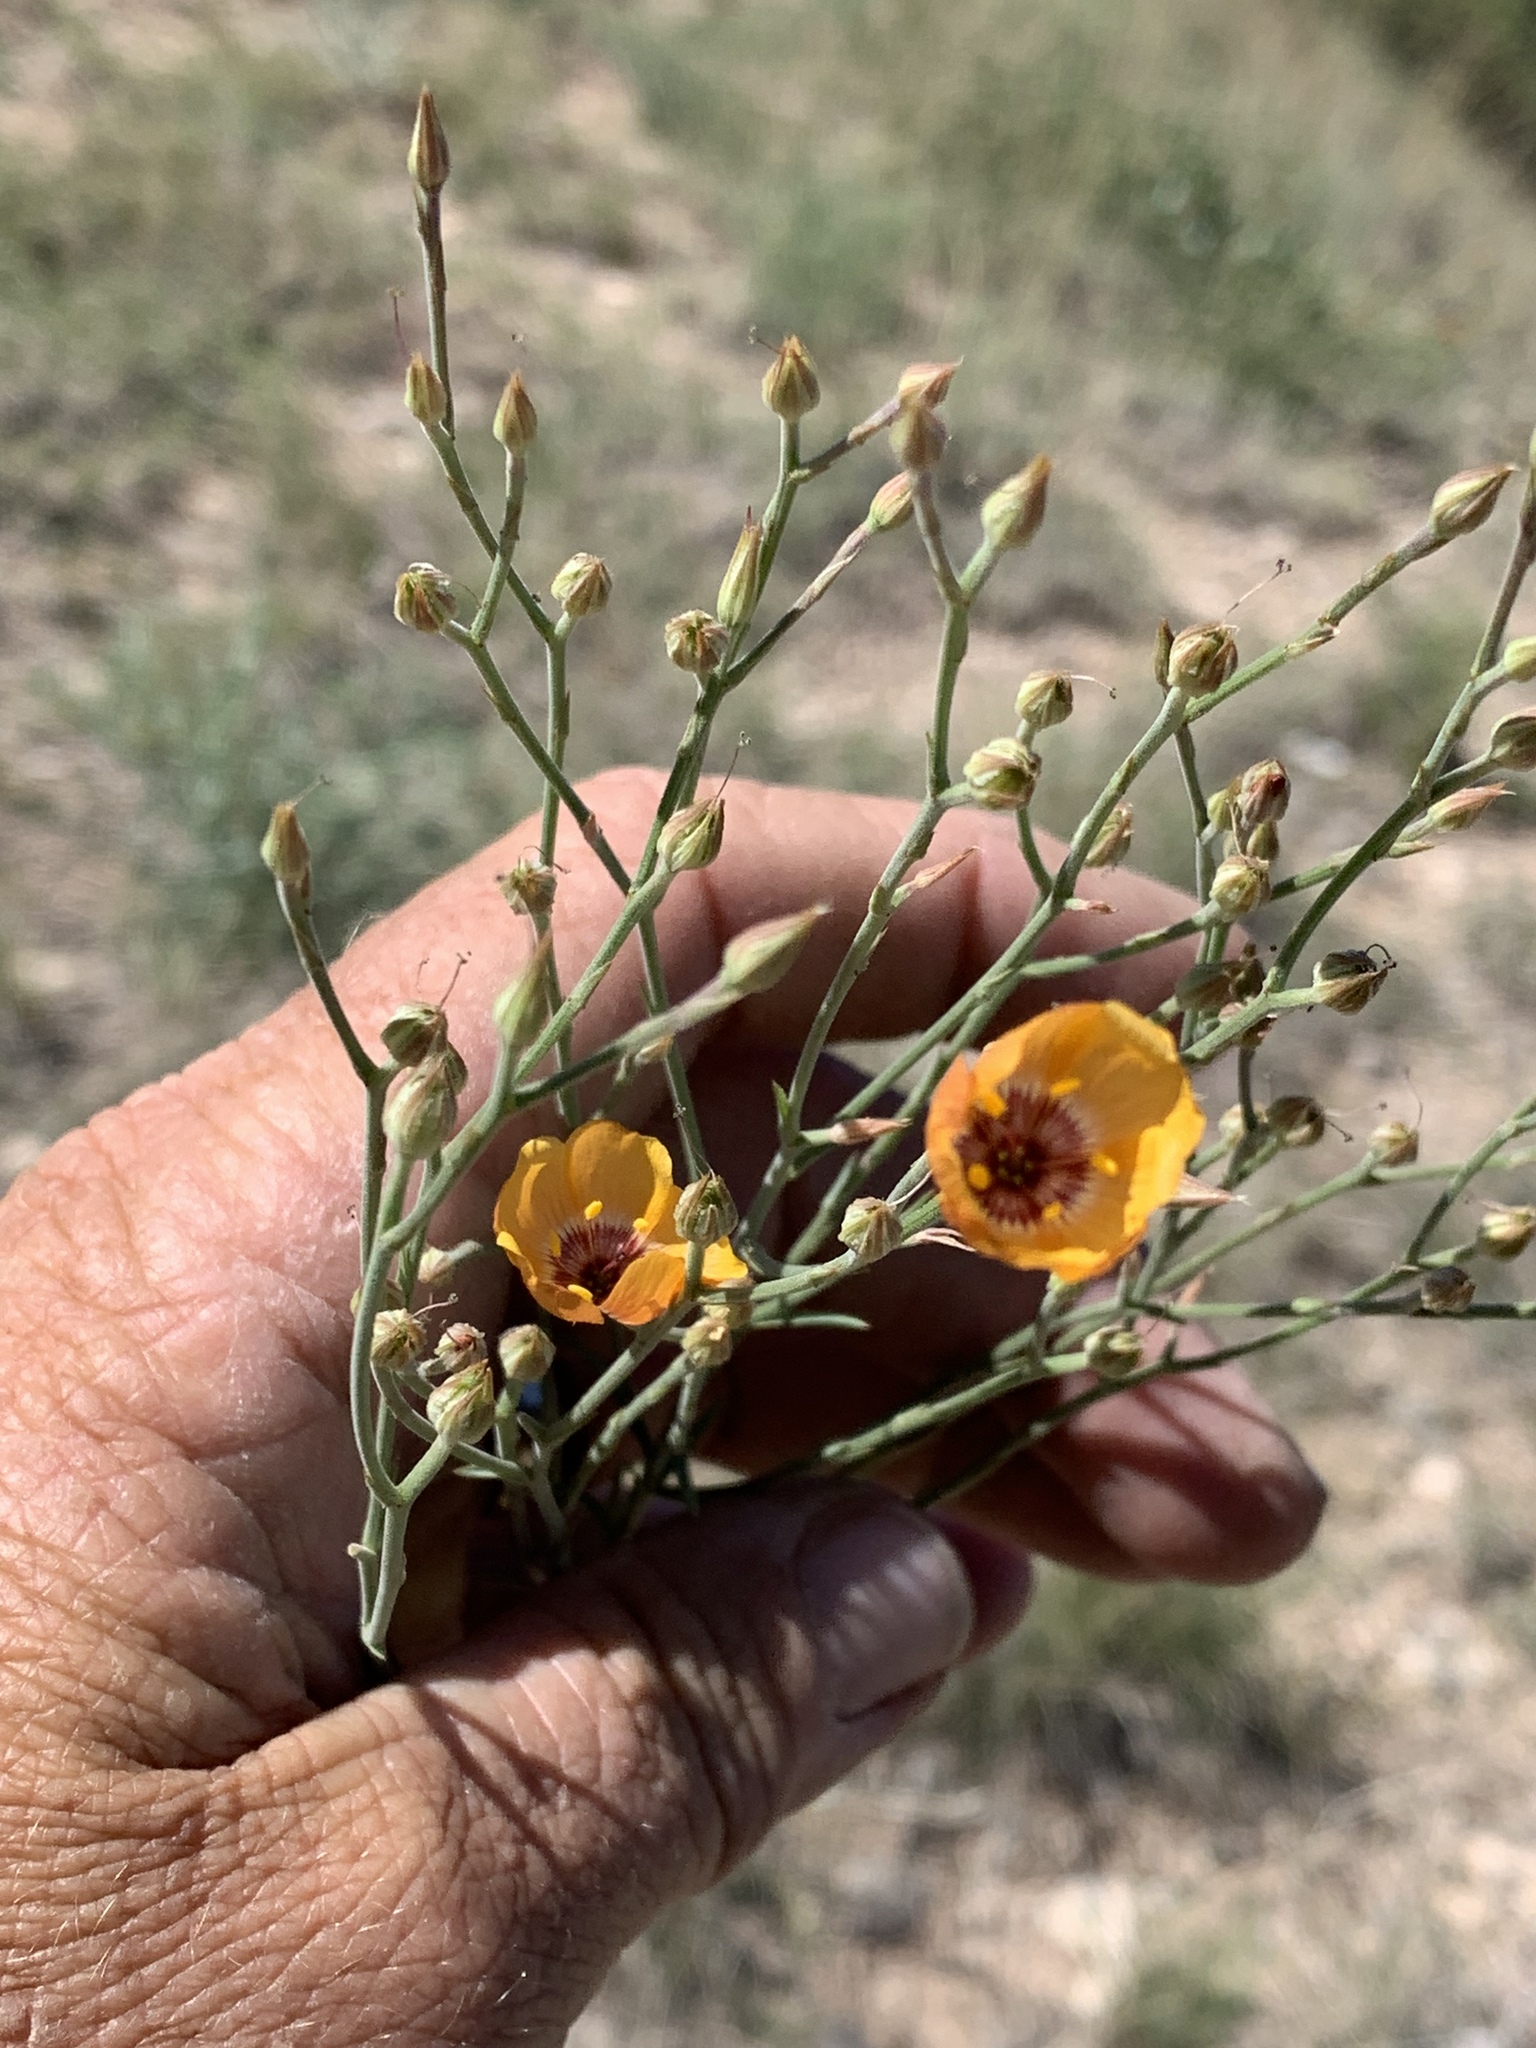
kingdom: Plantae
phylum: Tracheophyta
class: Magnoliopsida
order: Malpighiales
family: Linaceae
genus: Linum
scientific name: Linum puberulum
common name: Plains flax
